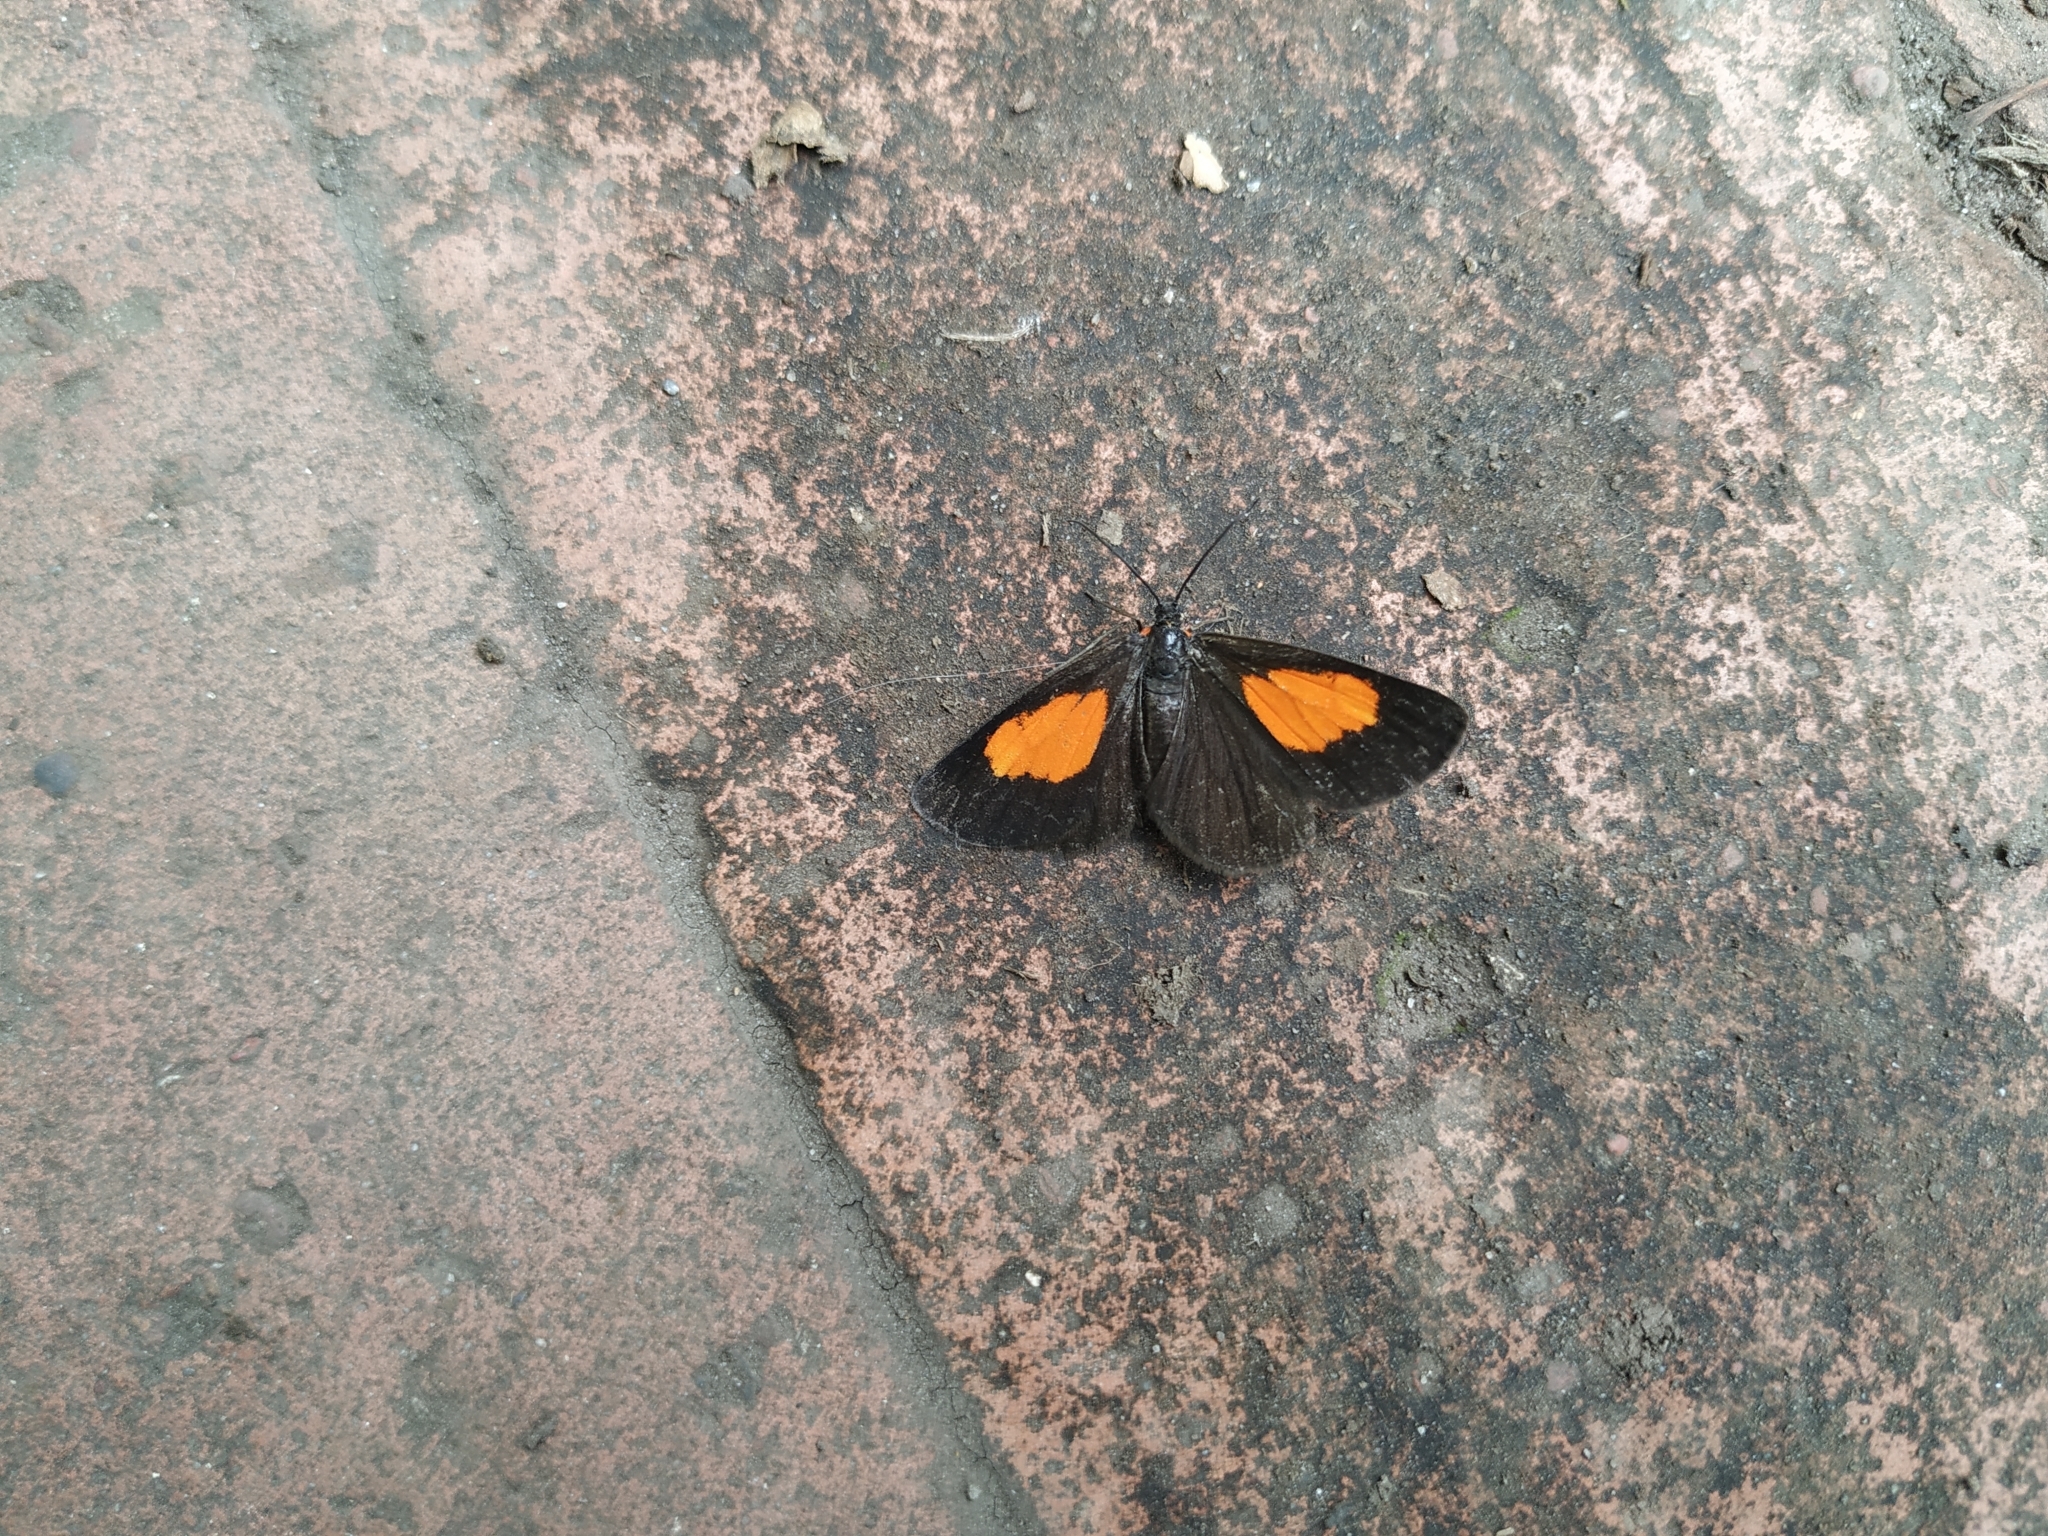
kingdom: Animalia
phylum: Arthropoda
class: Insecta
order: Lepidoptera
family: Geometridae
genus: Sangalopsis
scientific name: Sangalopsis ficifera
